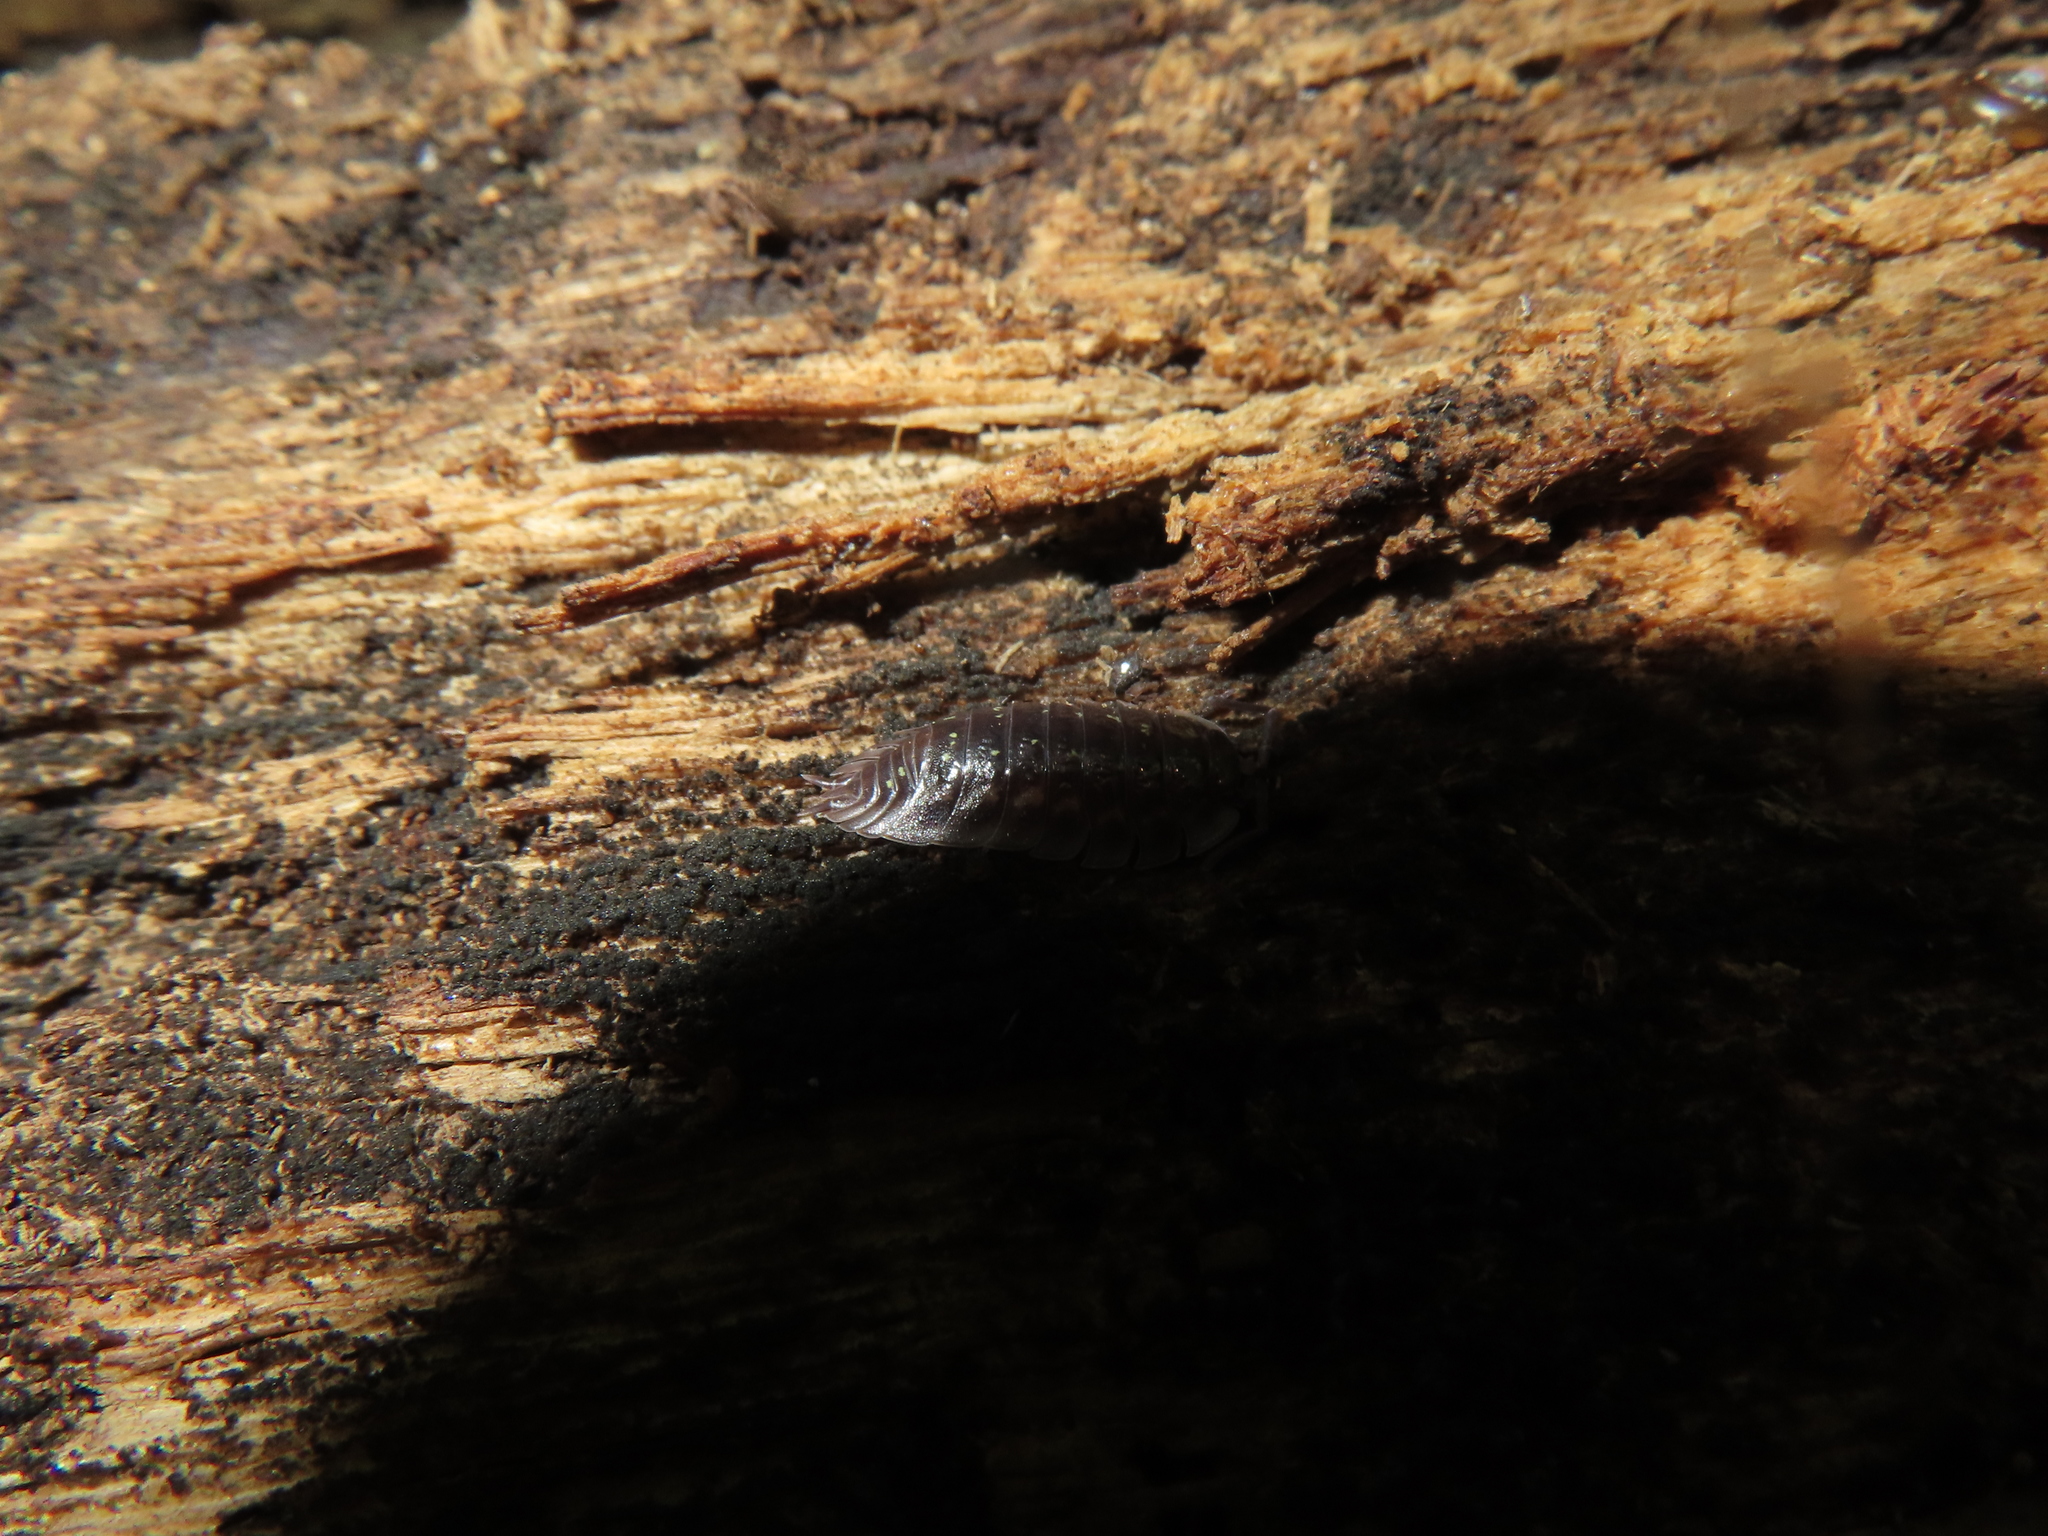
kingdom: Animalia
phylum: Arthropoda
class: Malacostraca
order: Isopoda
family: Oniscidae
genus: Oniscus
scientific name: Oniscus asellus
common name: Common shiny woodlouse
